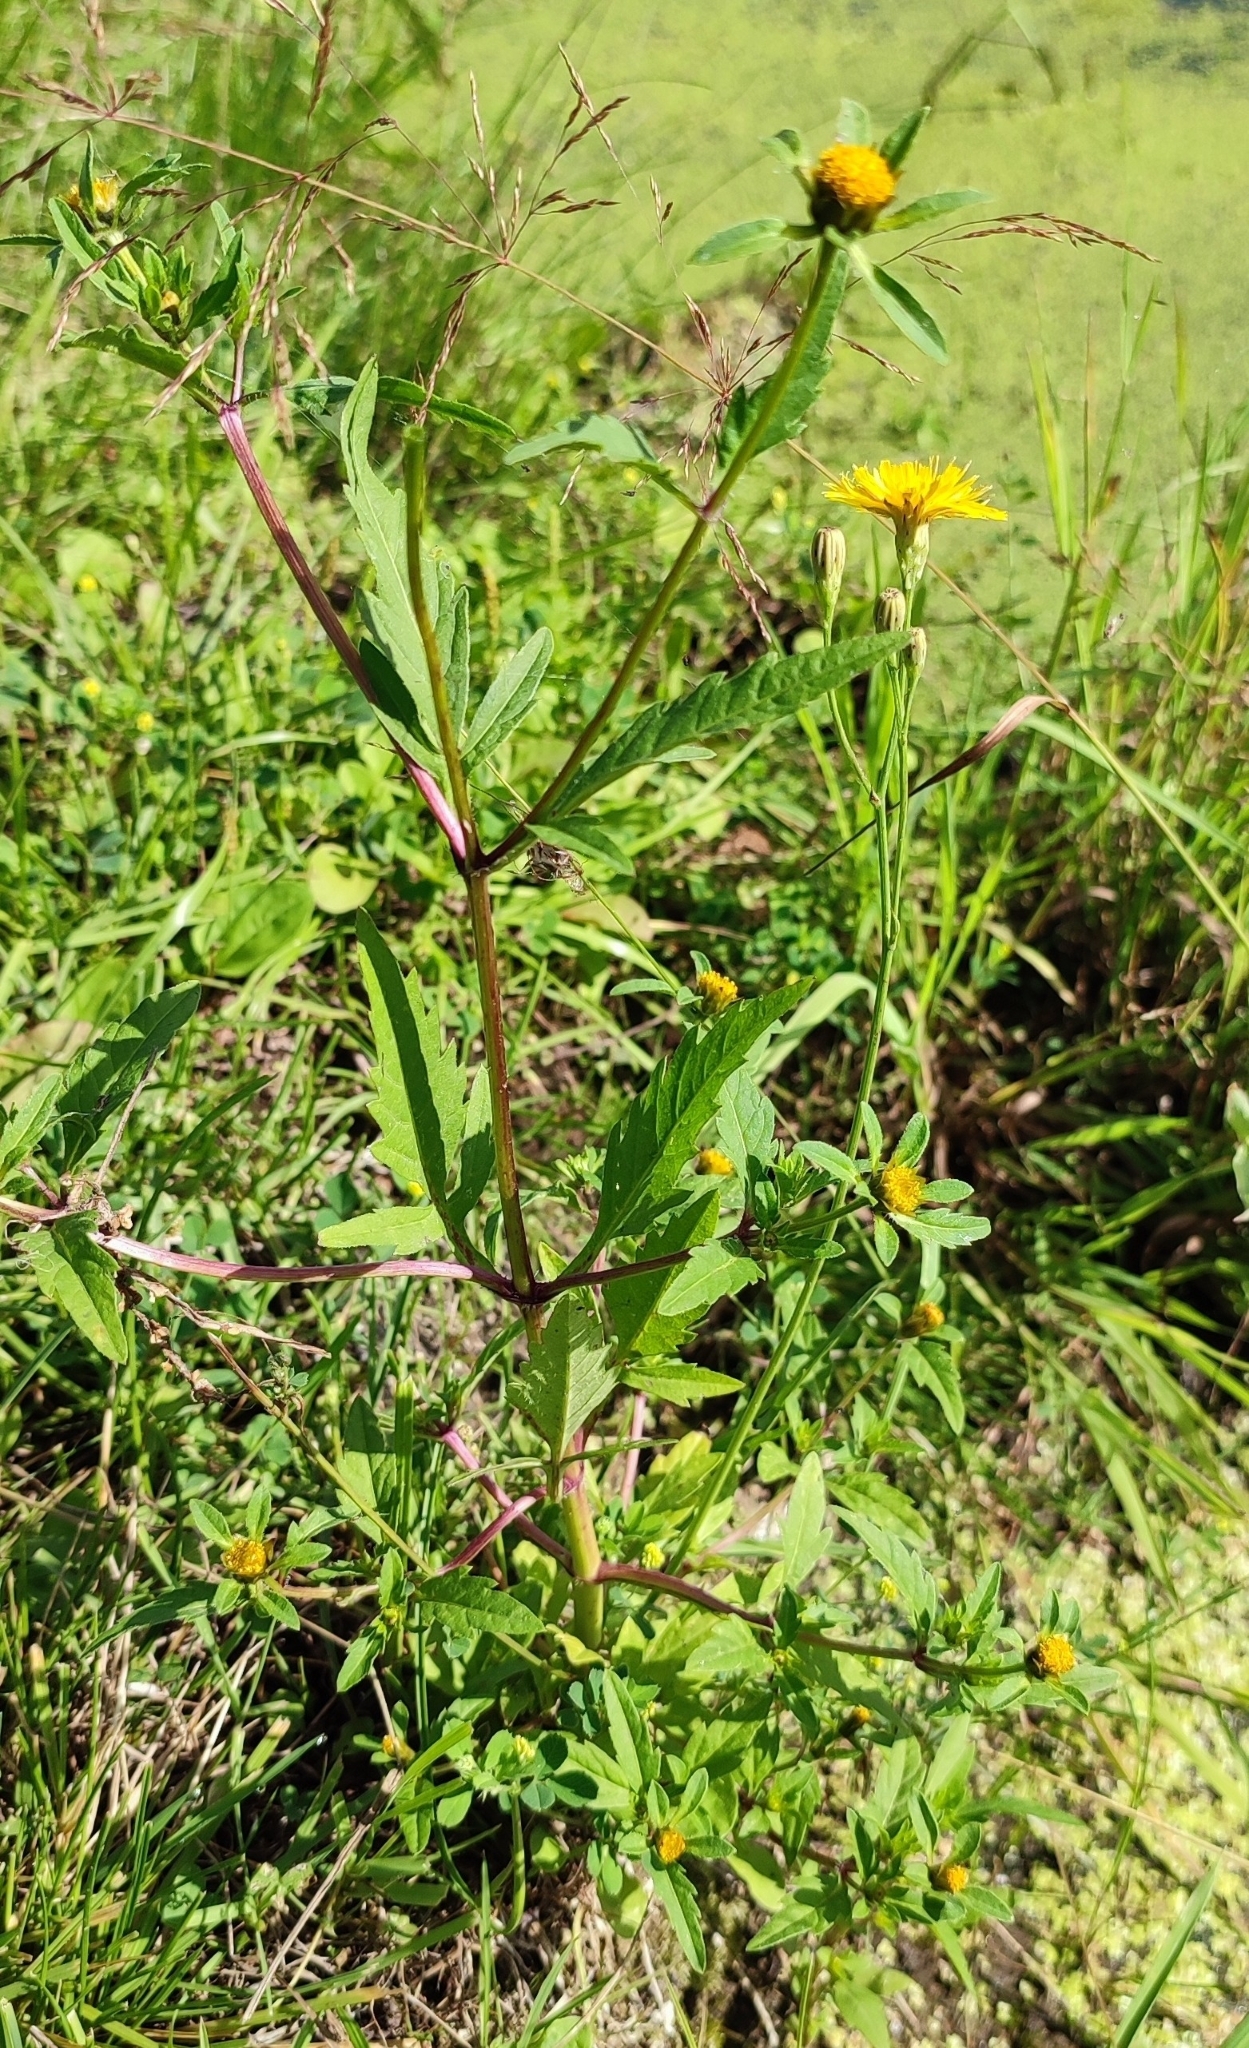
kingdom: Plantae
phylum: Tracheophyta
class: Magnoliopsida
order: Asterales
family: Asteraceae
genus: Bidens
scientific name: Bidens tripartita
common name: Trifid bur-marigold
